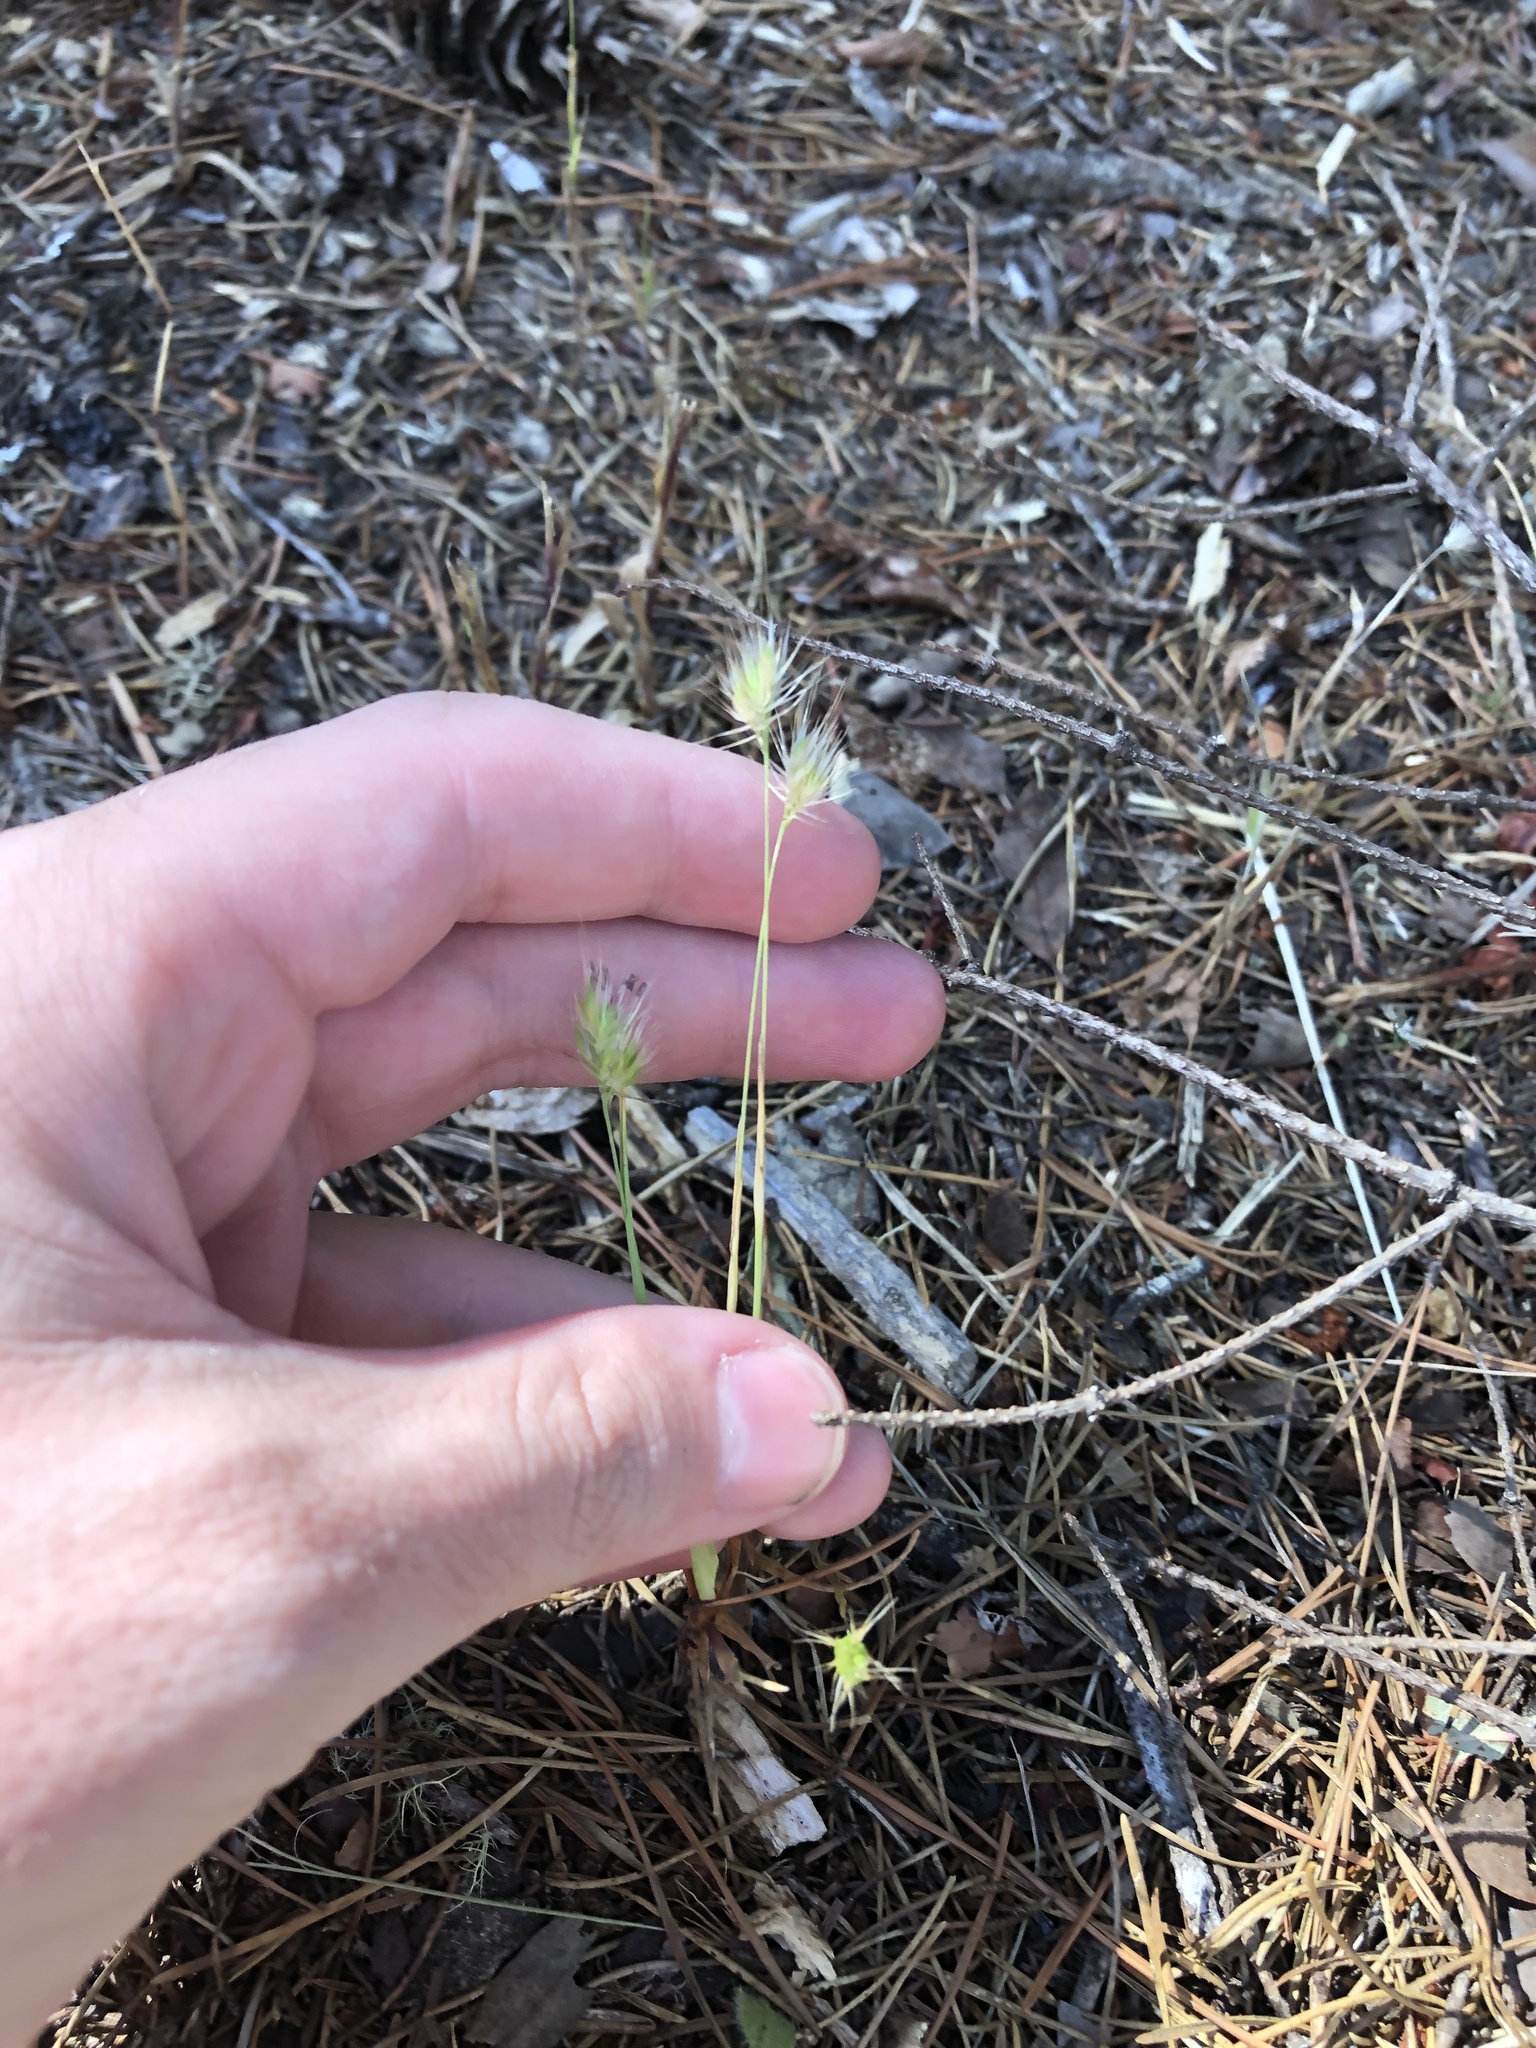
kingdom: Plantae
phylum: Tracheophyta
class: Liliopsida
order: Poales
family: Poaceae
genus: Cynosurus
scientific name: Cynosurus echinatus
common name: Rough dog's-tail
